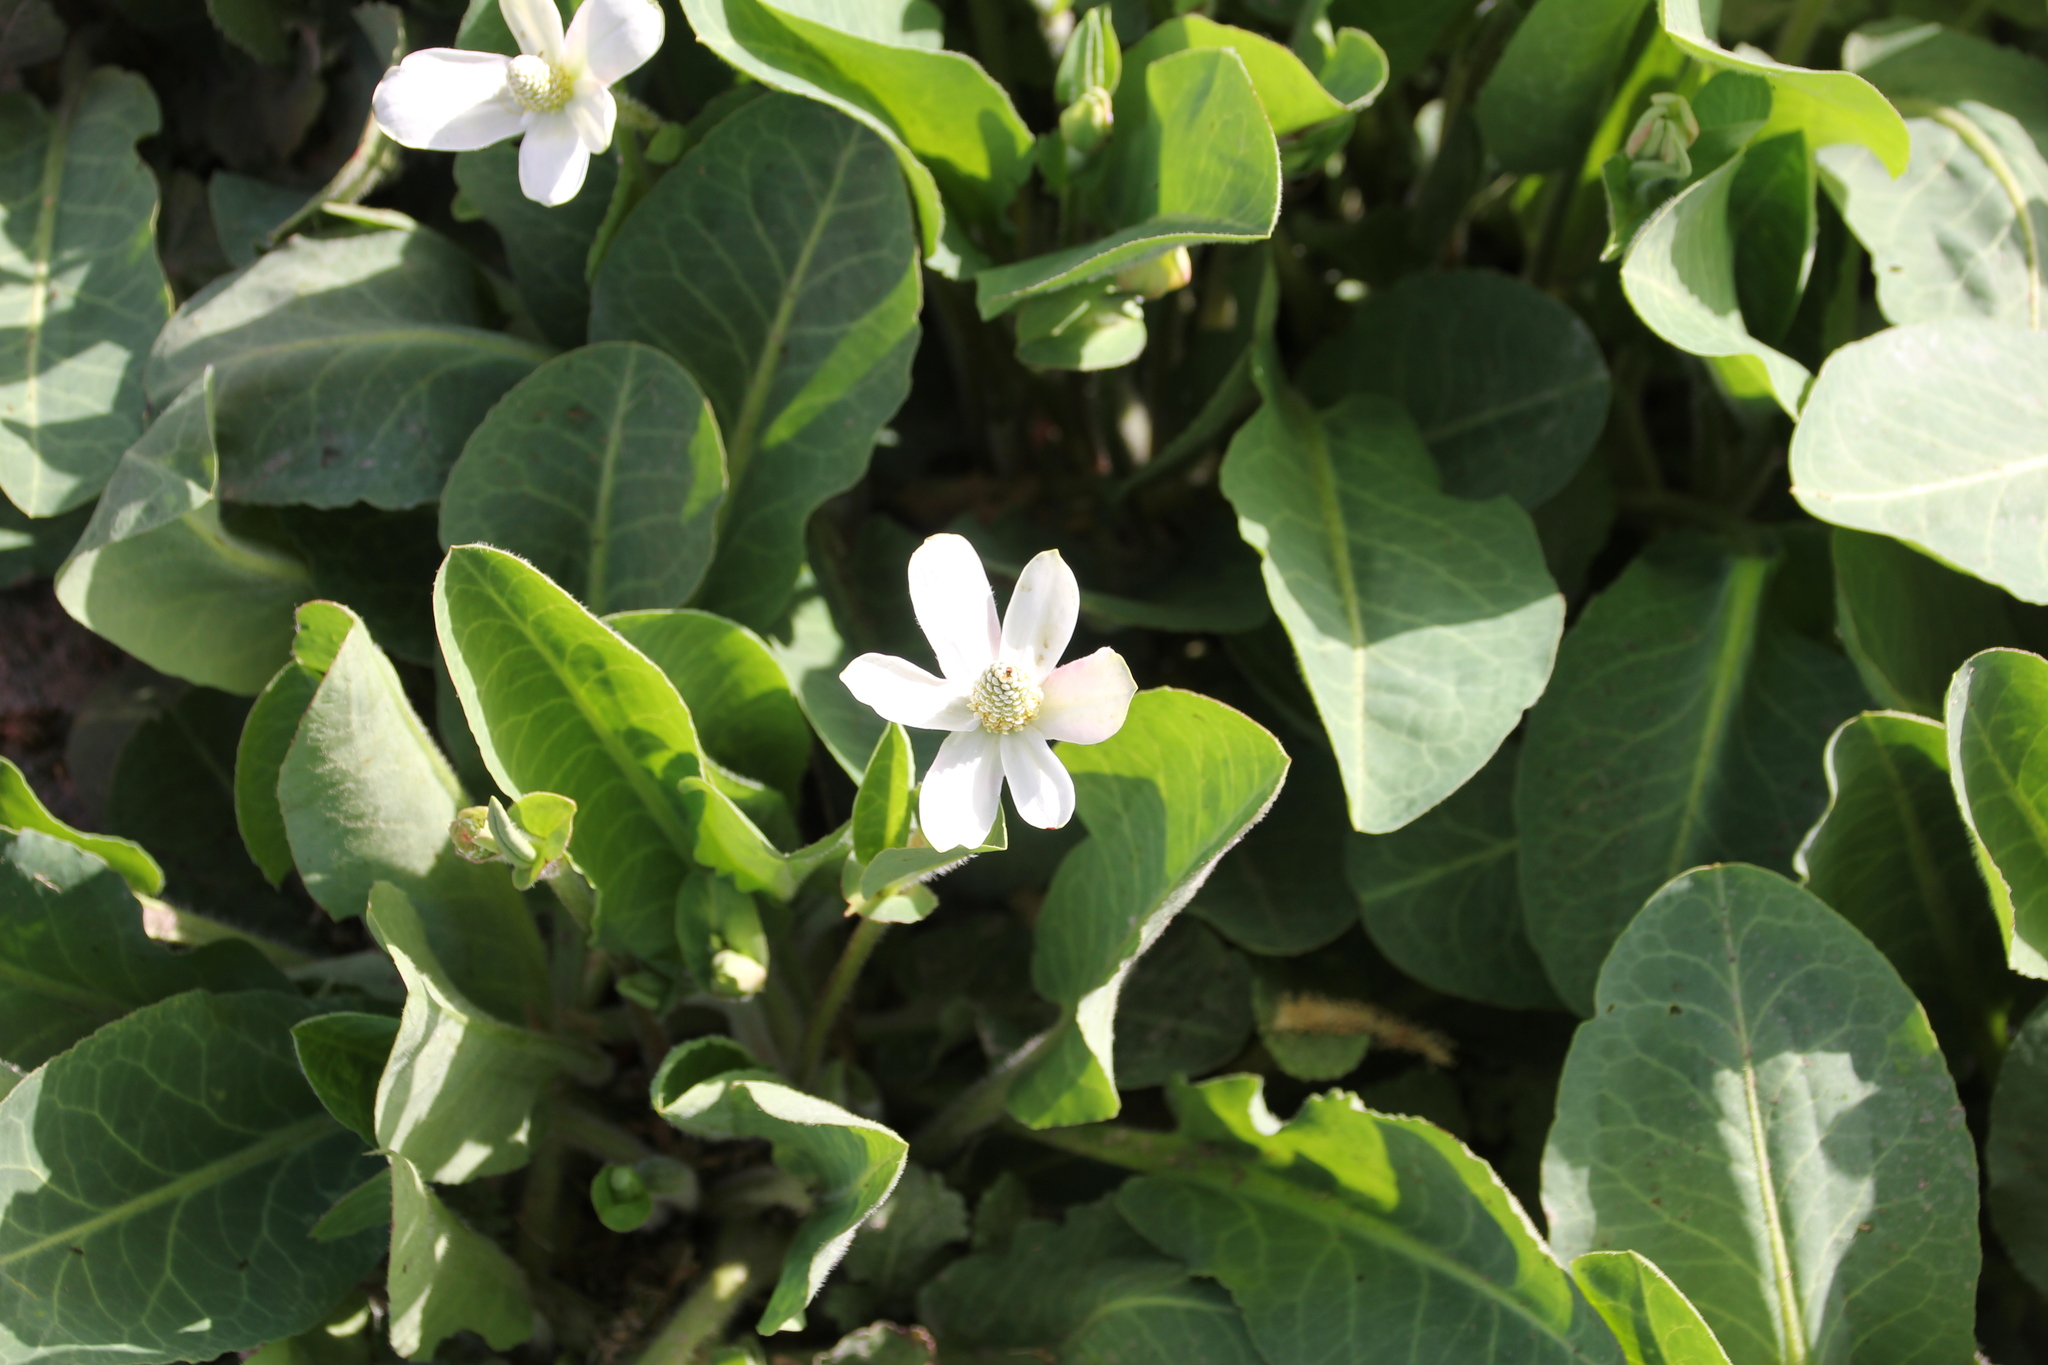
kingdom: Plantae
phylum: Tracheophyta
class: Magnoliopsida
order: Piperales
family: Saururaceae
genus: Anemopsis
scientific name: Anemopsis californica
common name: Apache-beads
